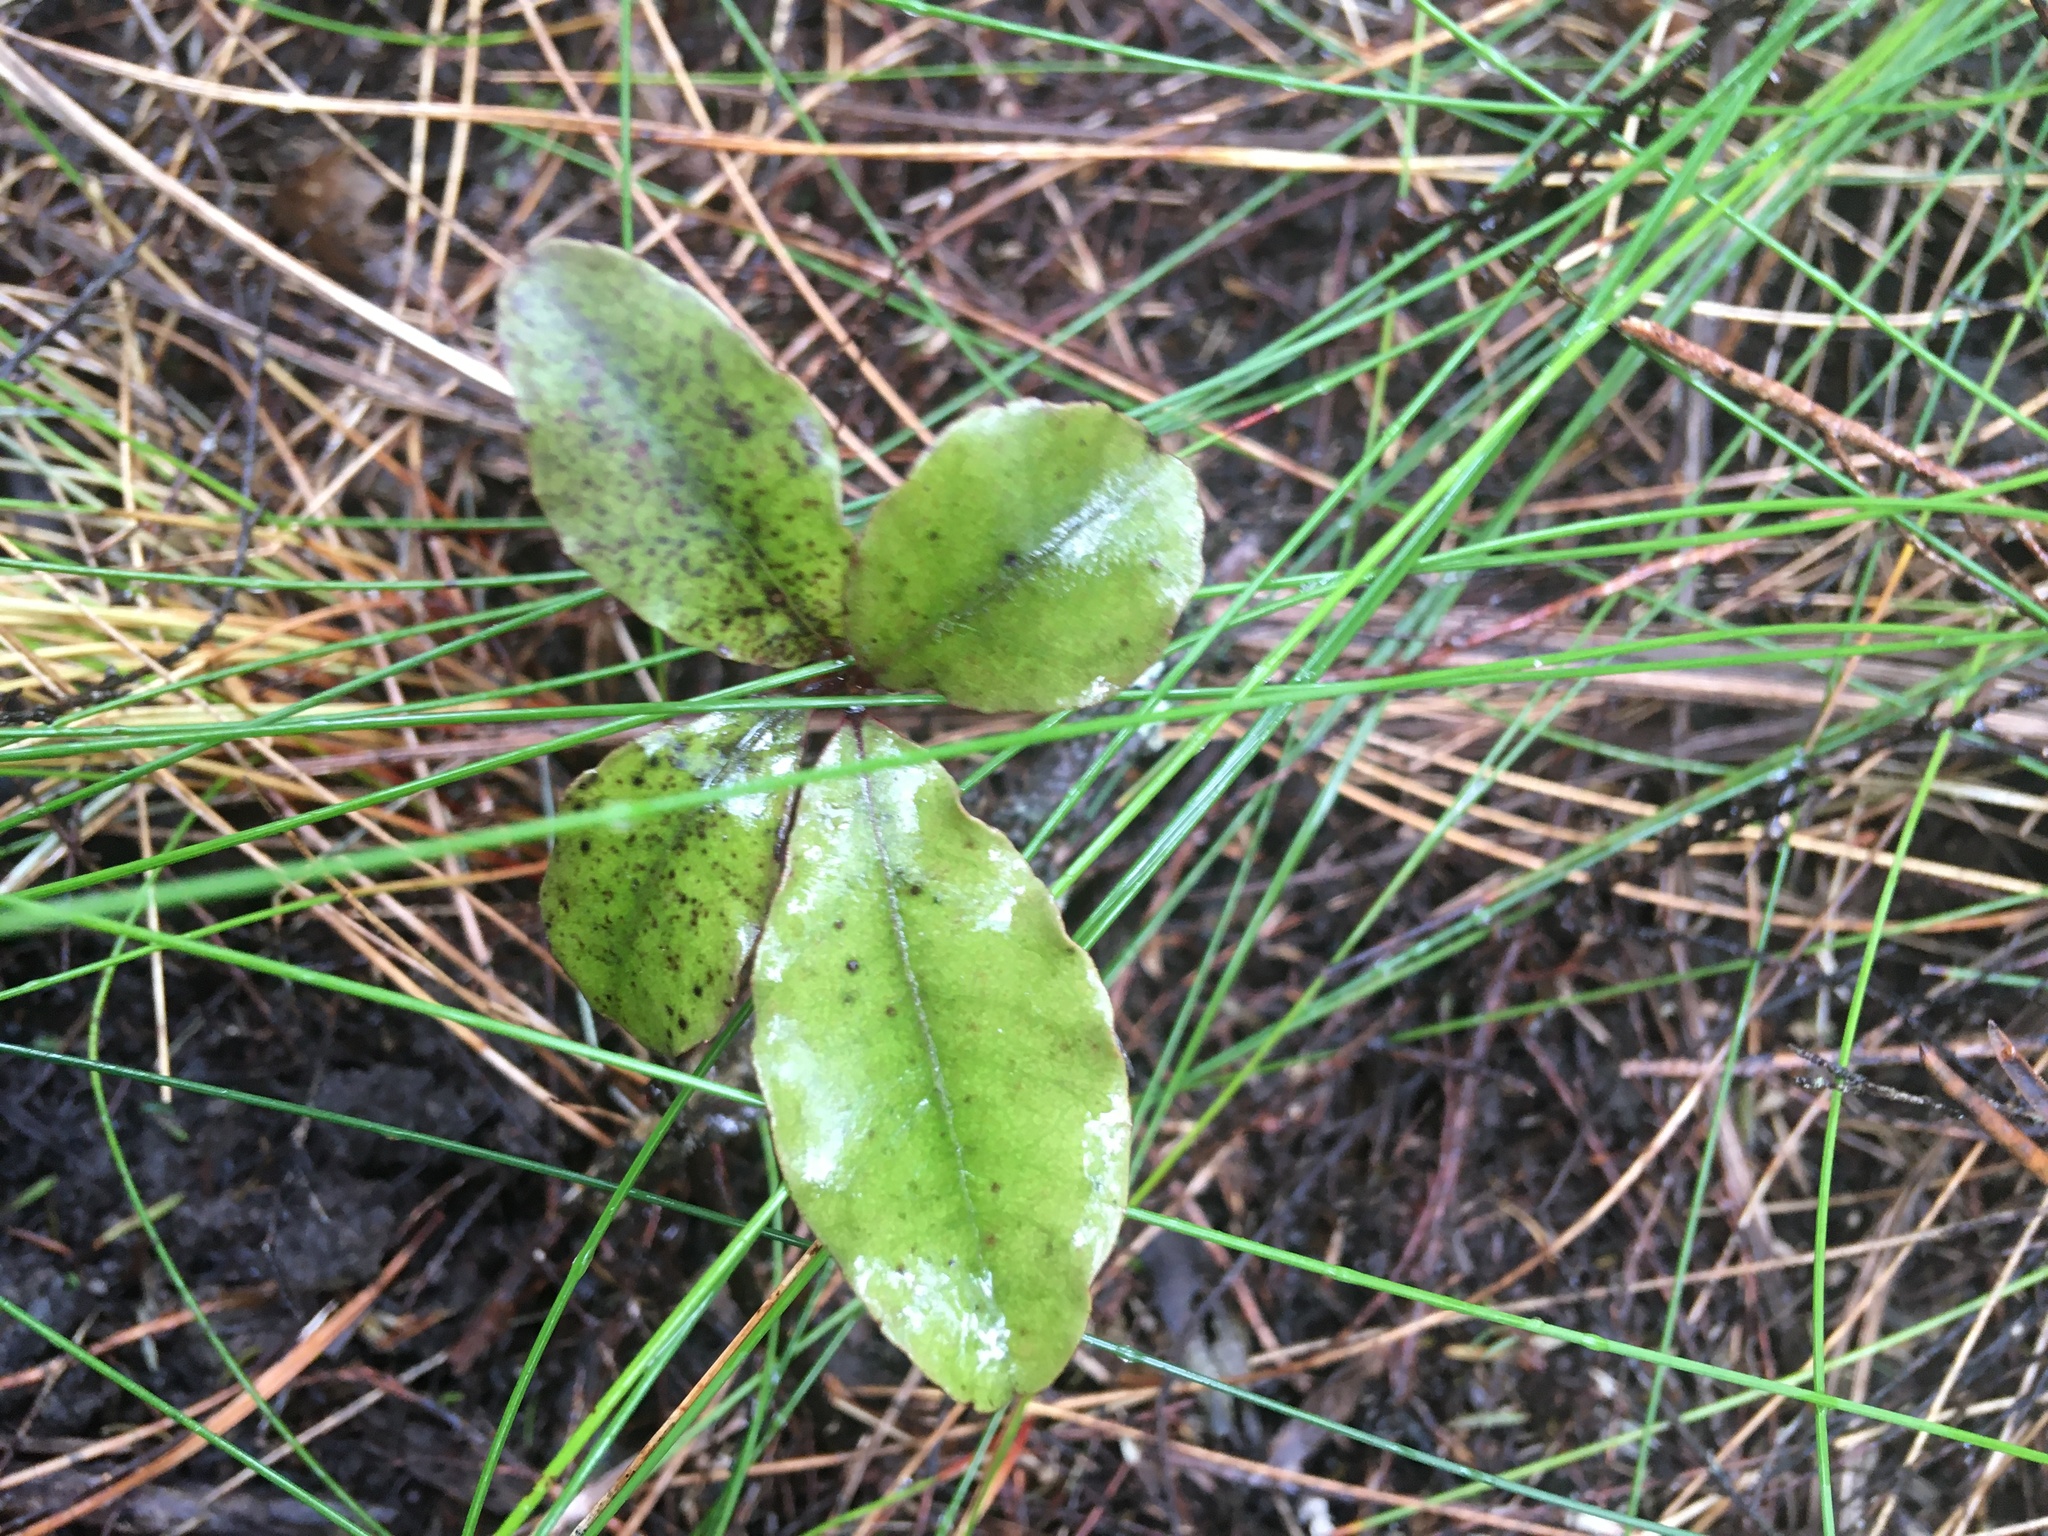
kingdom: Plantae
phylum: Tracheophyta
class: Magnoliopsida
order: Ericales
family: Primulaceae
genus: Myrsine
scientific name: Myrsine australis
